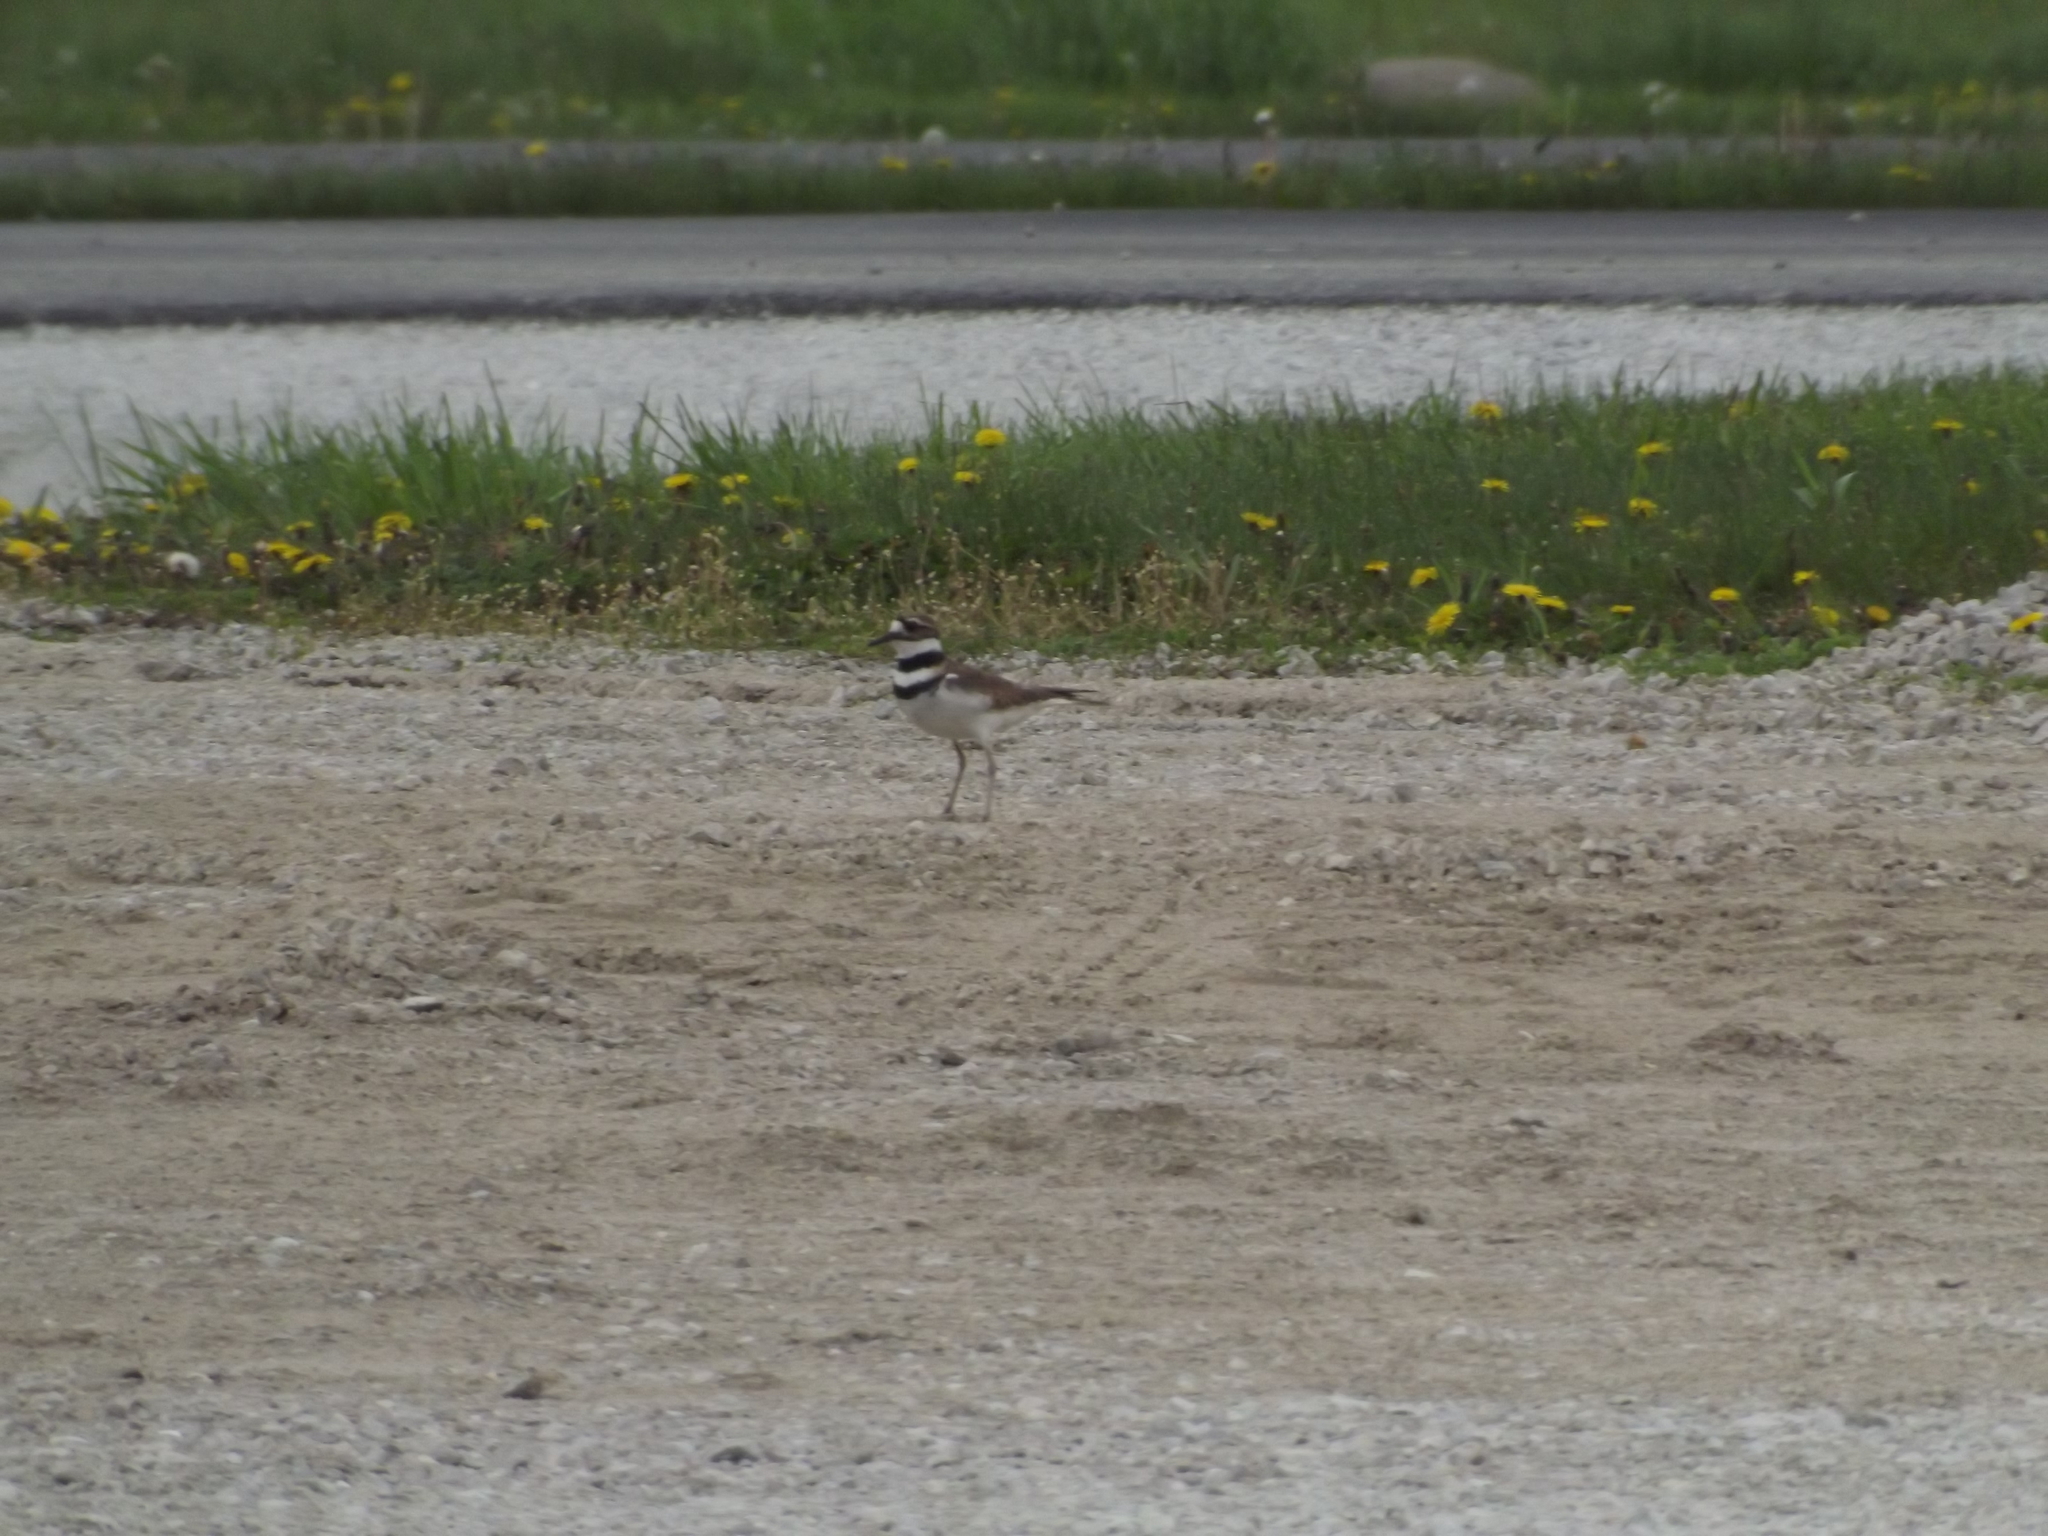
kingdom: Animalia
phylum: Chordata
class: Aves
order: Charadriiformes
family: Charadriidae
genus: Charadrius
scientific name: Charadrius vociferus
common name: Killdeer
